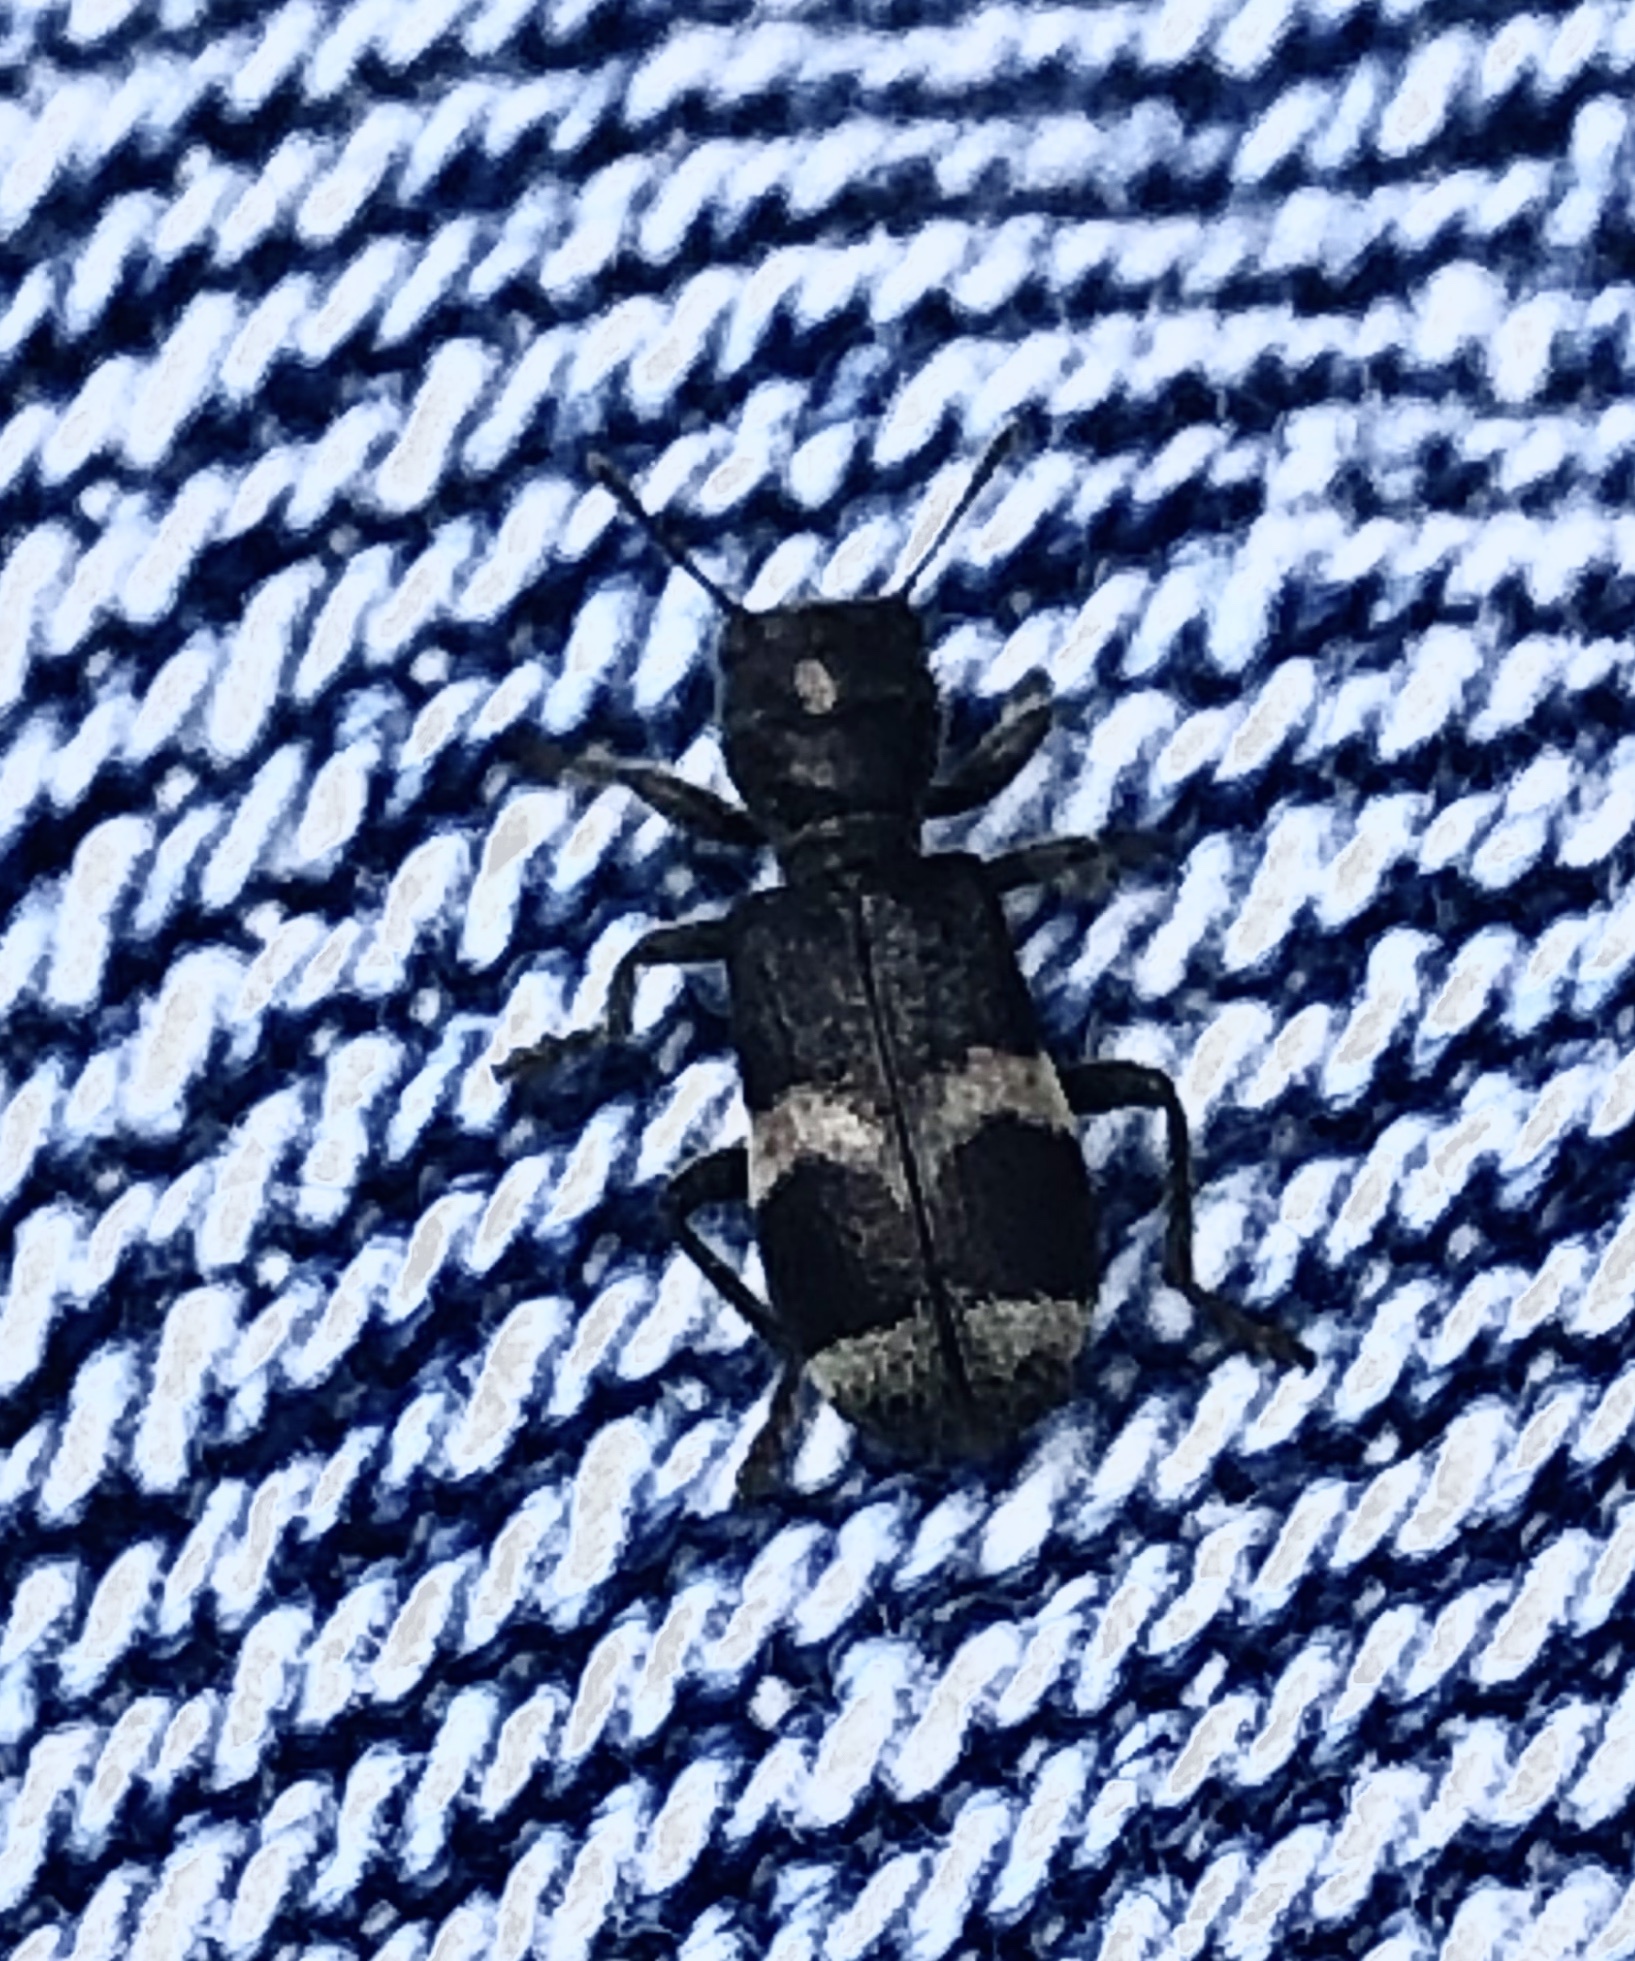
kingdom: Animalia
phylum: Arthropoda
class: Insecta
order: Coleoptera
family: Cleridae
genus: Enoclerus
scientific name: Enoclerus nigripes
